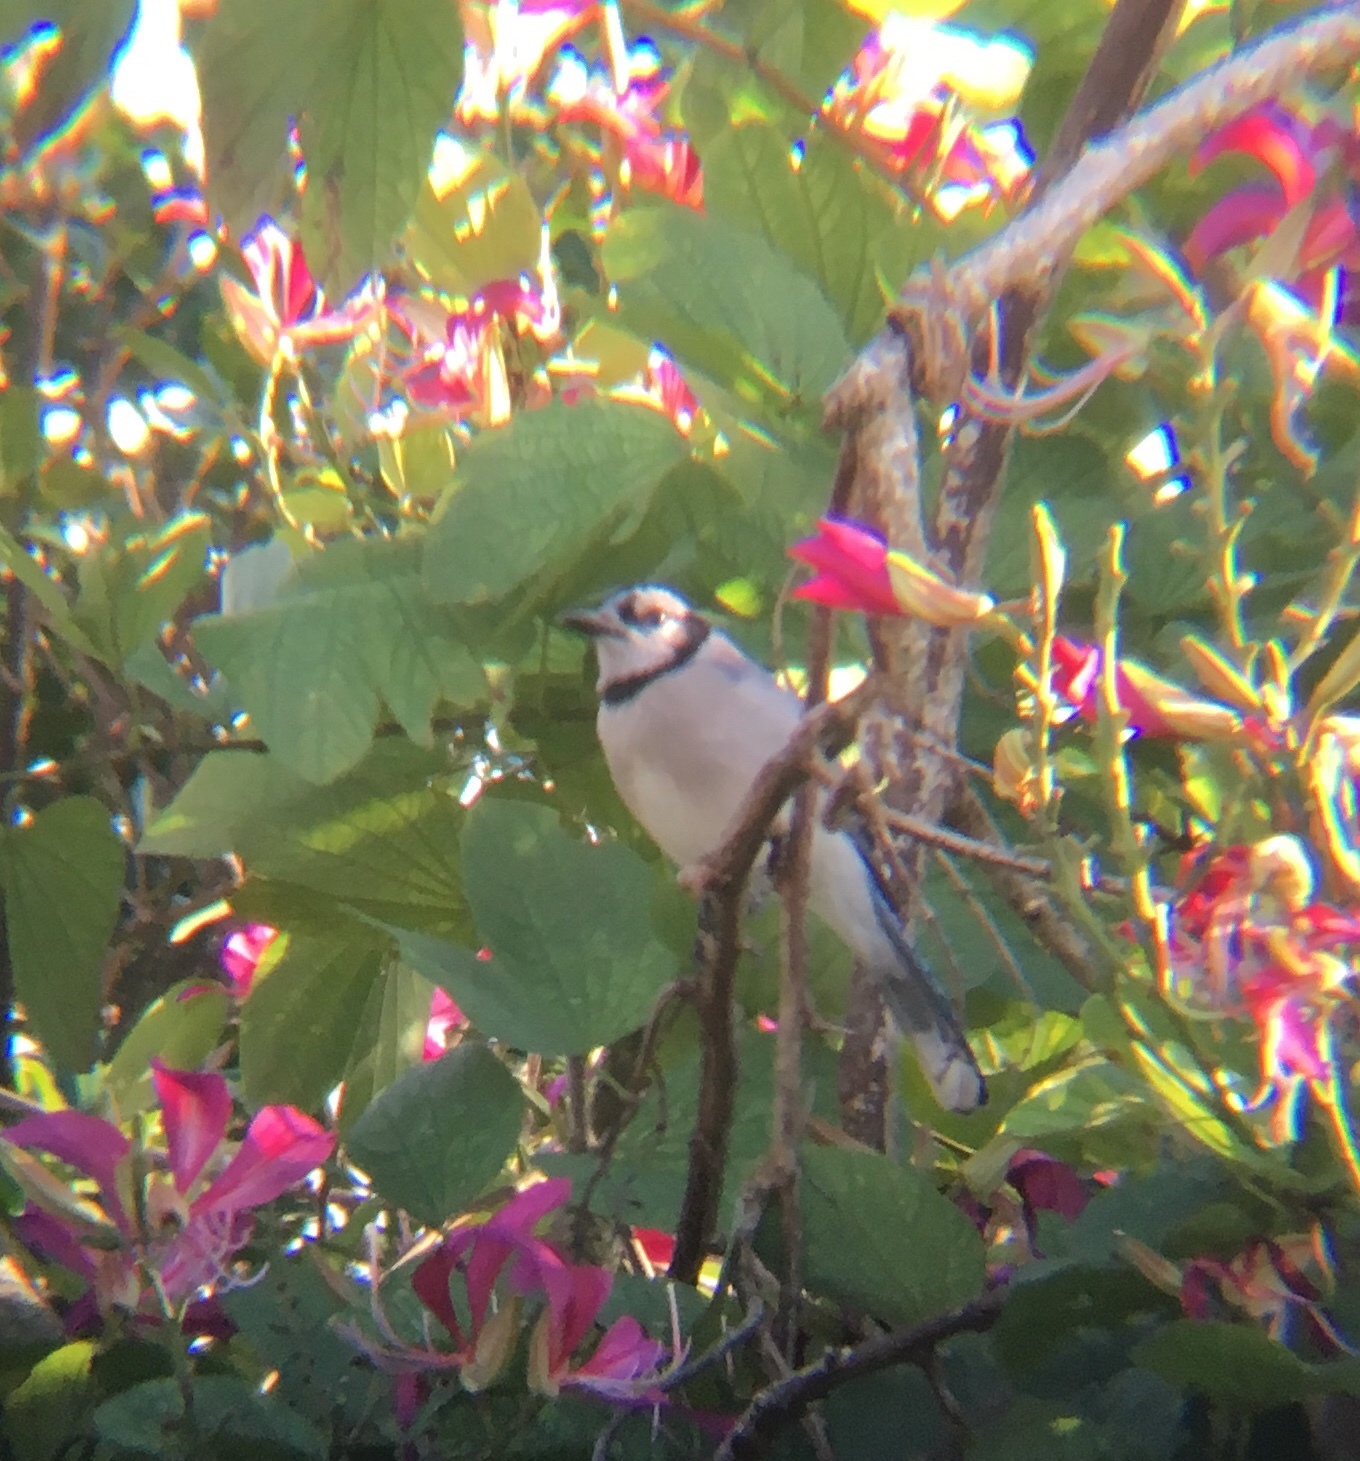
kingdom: Animalia
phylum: Chordata
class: Aves
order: Passeriformes
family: Corvidae
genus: Cyanocitta
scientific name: Cyanocitta cristata
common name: Blue jay
